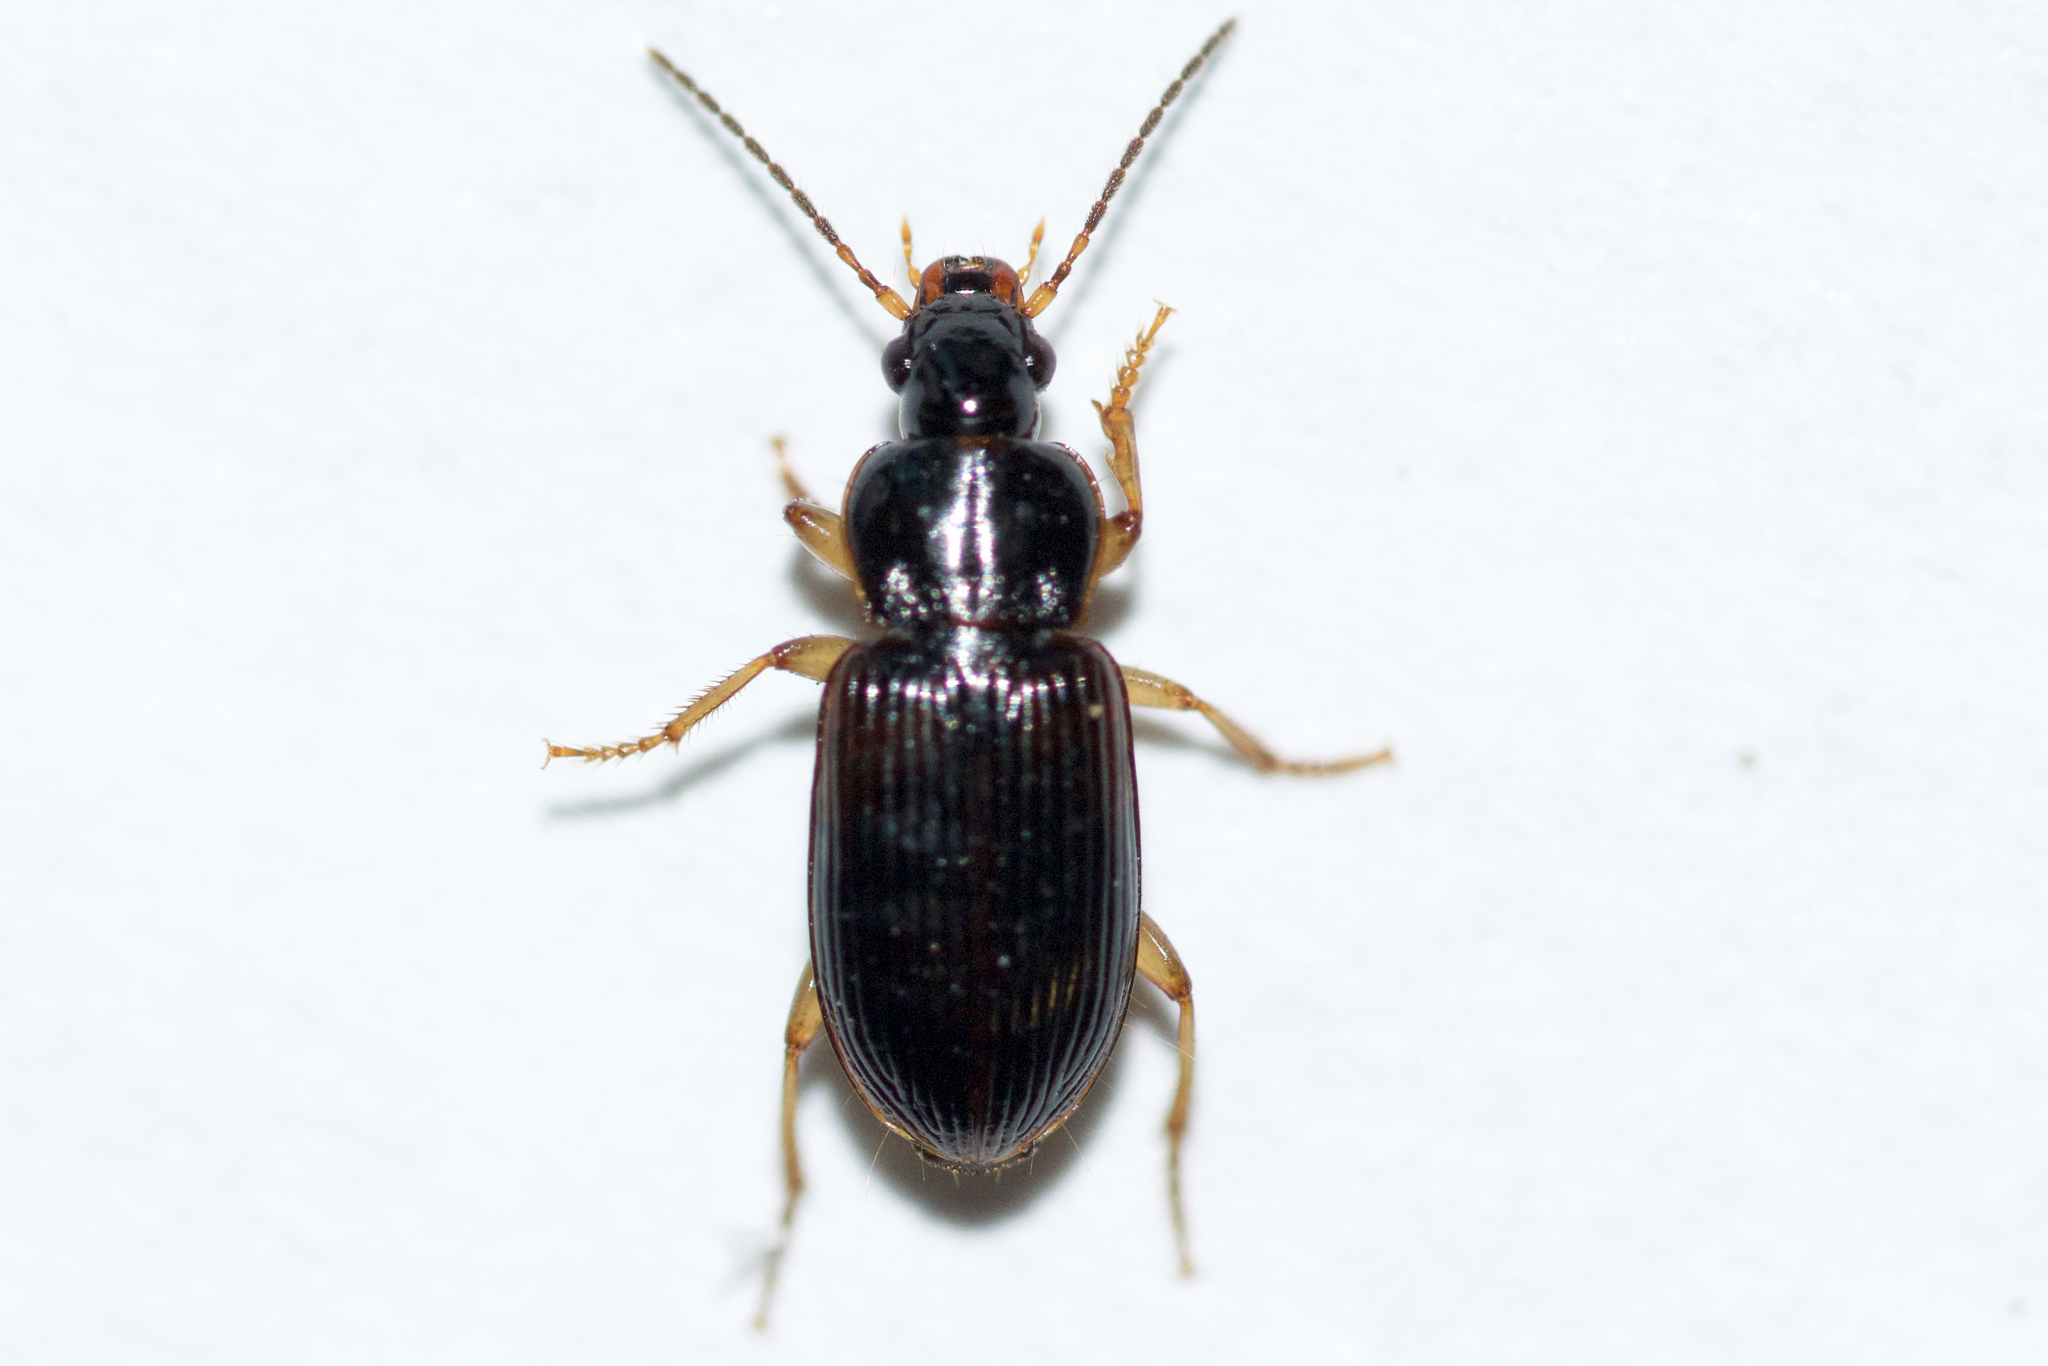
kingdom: Animalia
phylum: Arthropoda
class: Insecta
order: Coleoptera
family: Carabidae
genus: Stenolophus
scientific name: Stenolophus ochropezus
